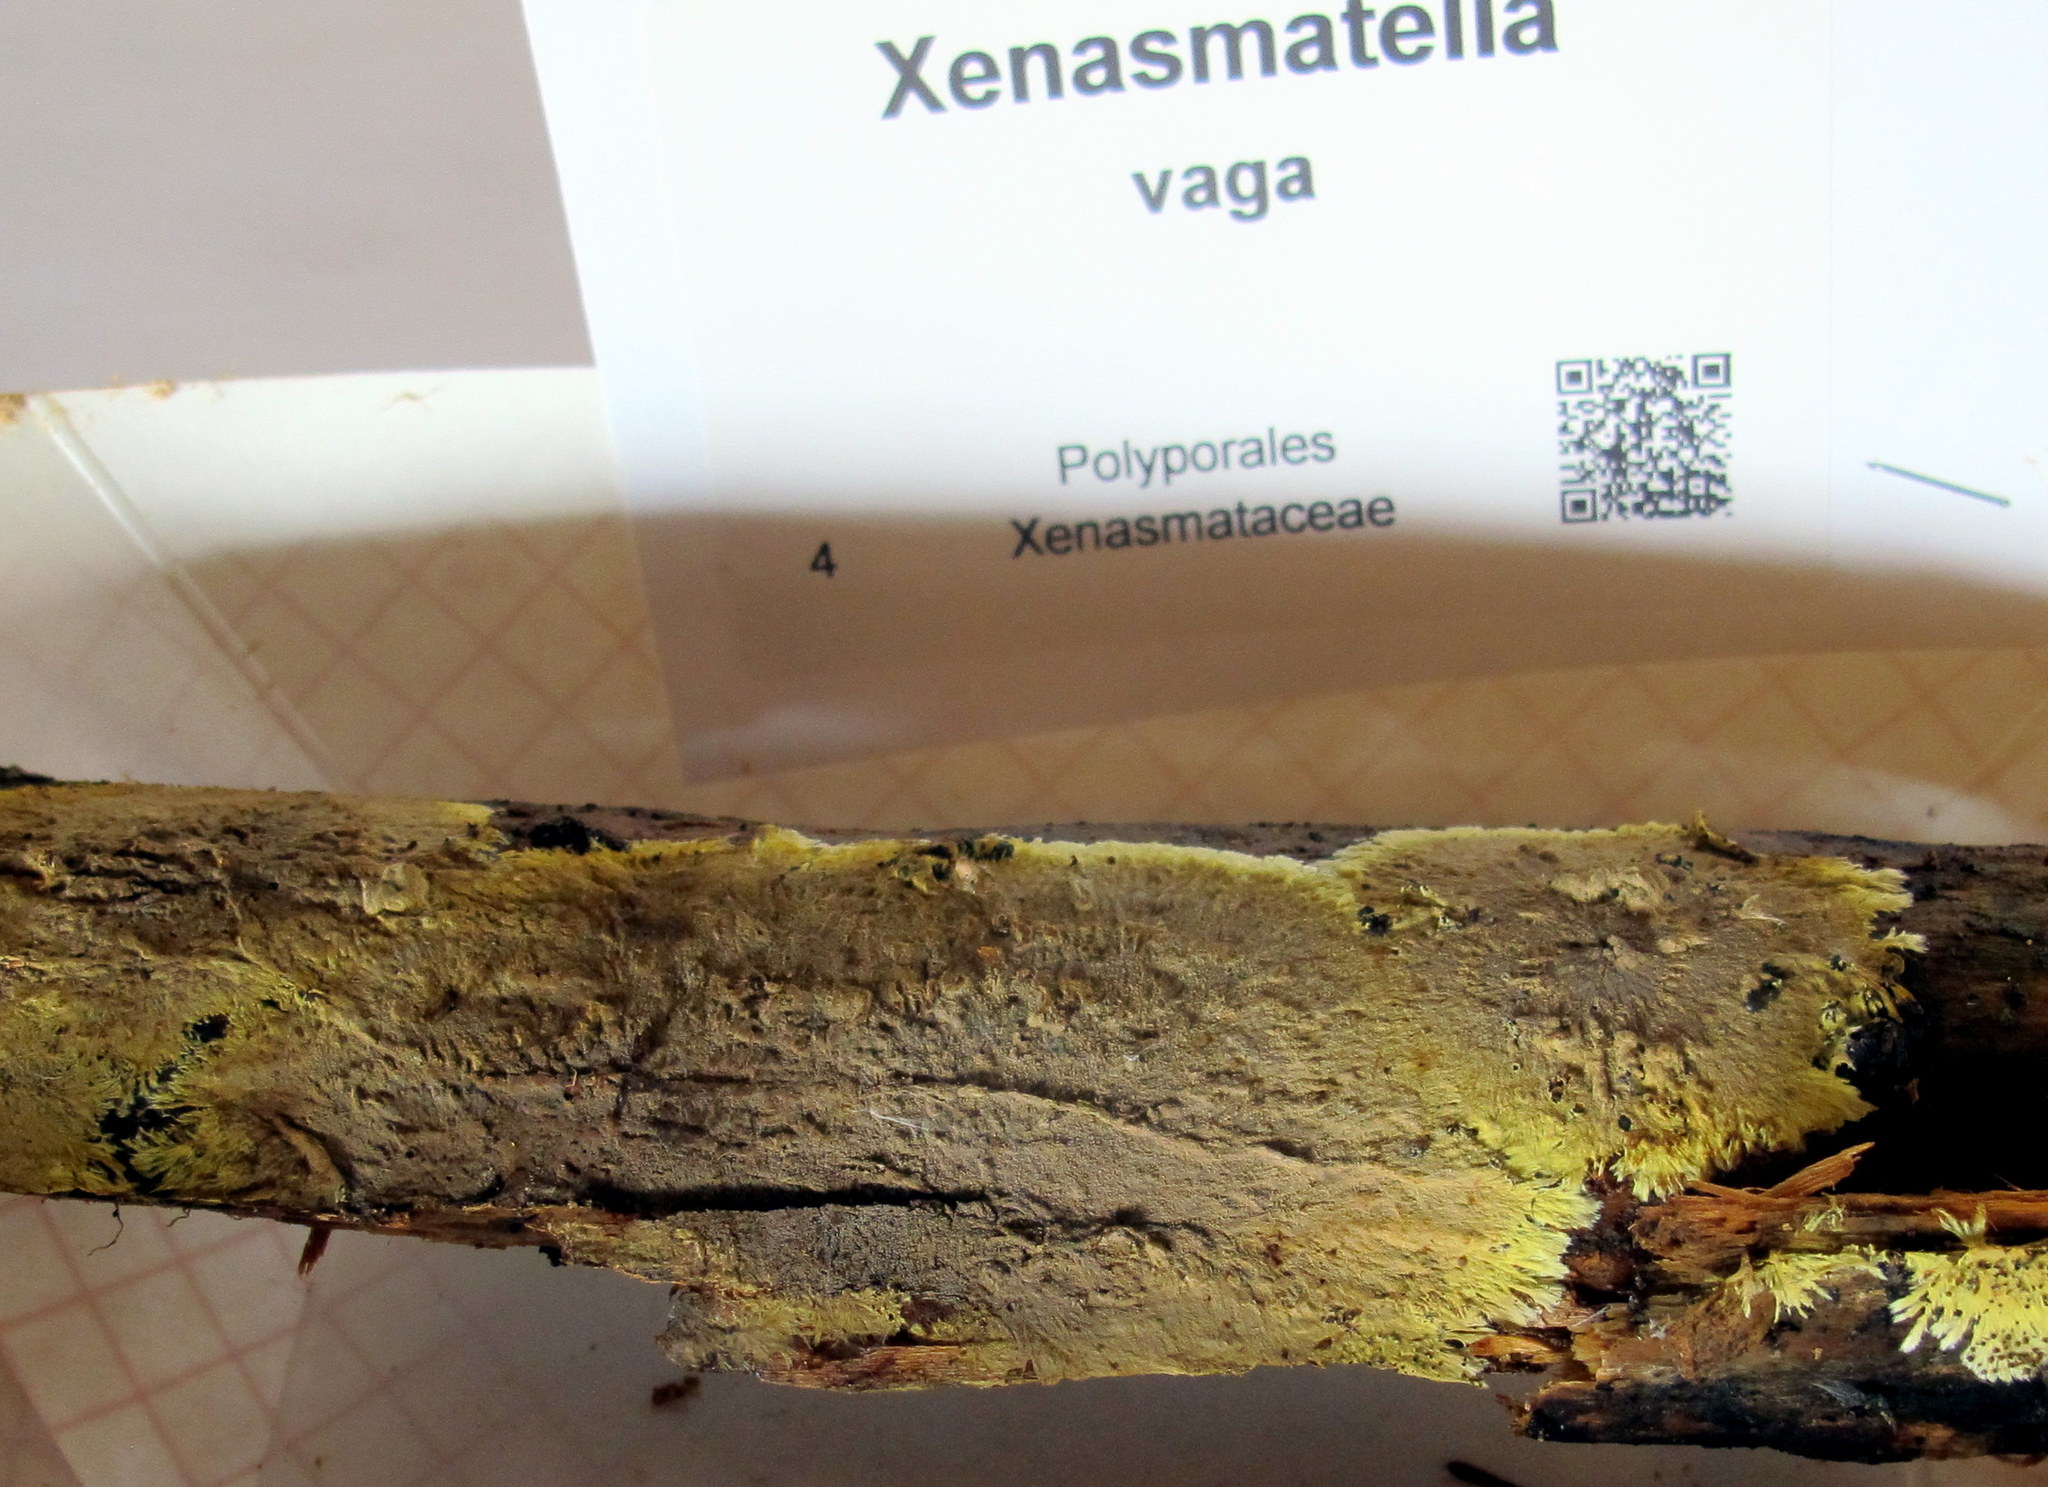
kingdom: Fungi
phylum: Basidiomycota
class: Agaricomycetes
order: Russulales
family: Xenasmataceae
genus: Xenasmatella
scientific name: Xenasmatella vaga
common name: Yellow cobweb
